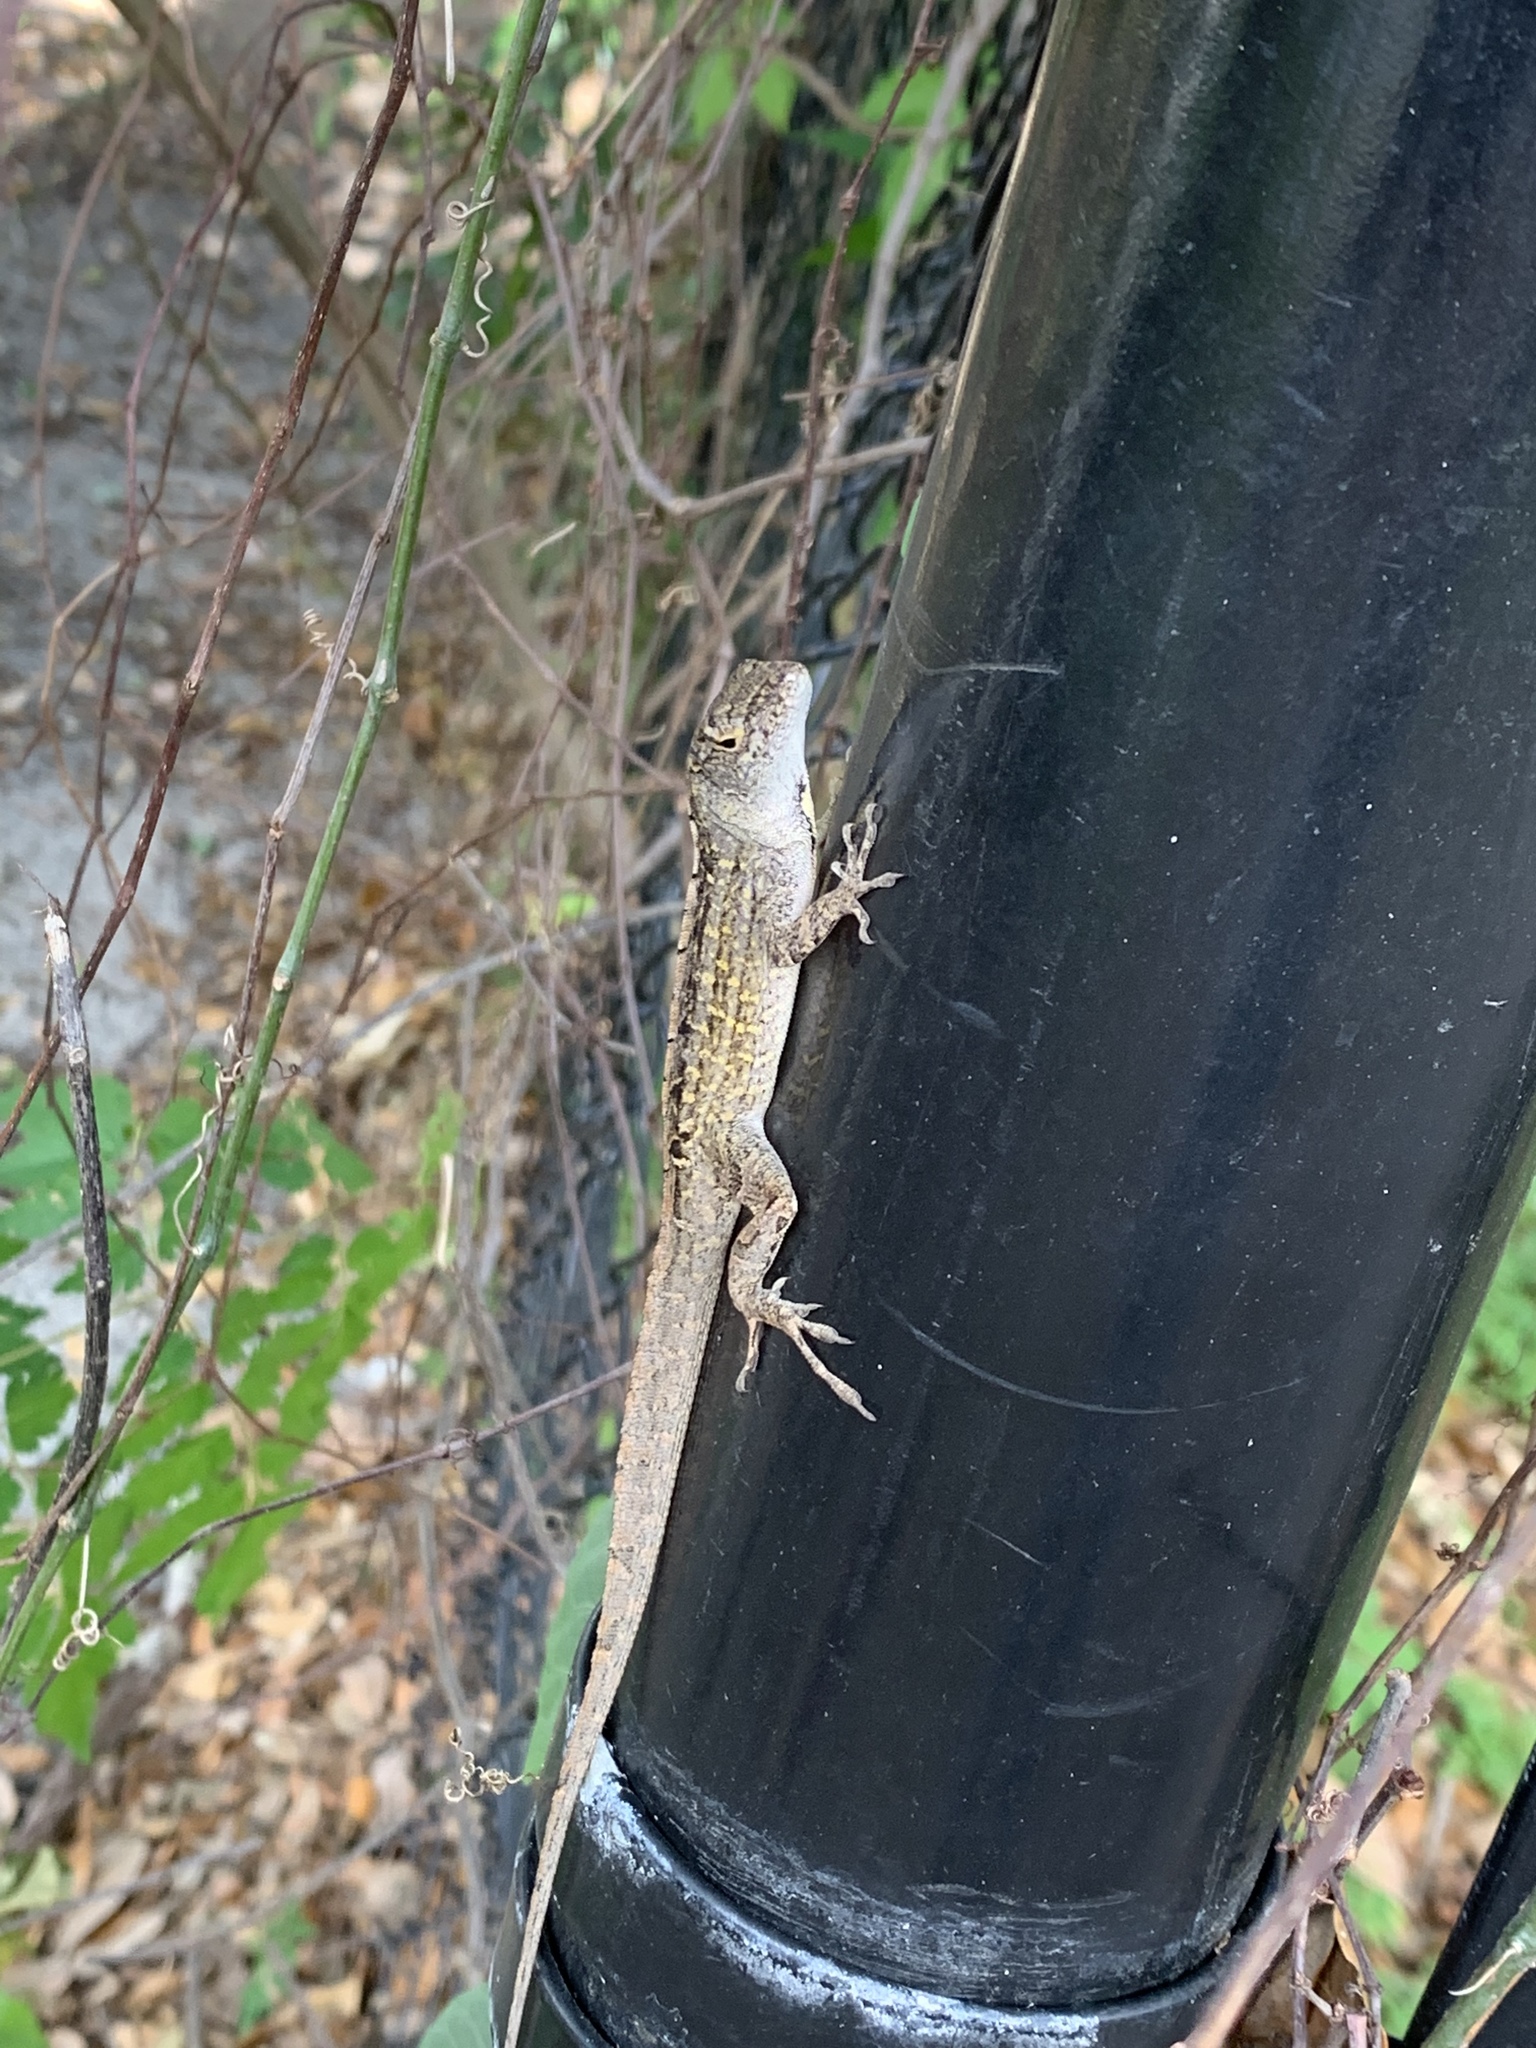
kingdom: Animalia
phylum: Chordata
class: Squamata
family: Dactyloidae
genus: Anolis
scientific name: Anolis sagrei
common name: Brown anole
